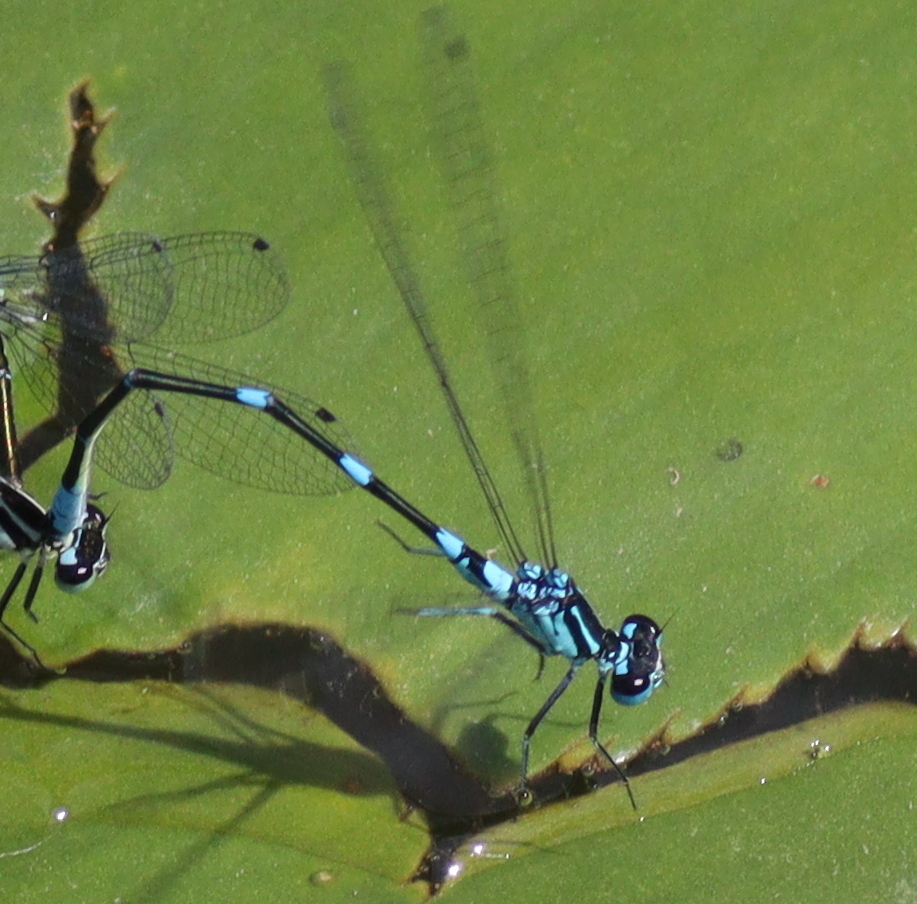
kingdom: Animalia
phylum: Arthropoda
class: Insecta
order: Odonata
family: Coenagrionidae
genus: Coenagrion
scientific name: Coenagrion pulchellum
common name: Variable bluet
